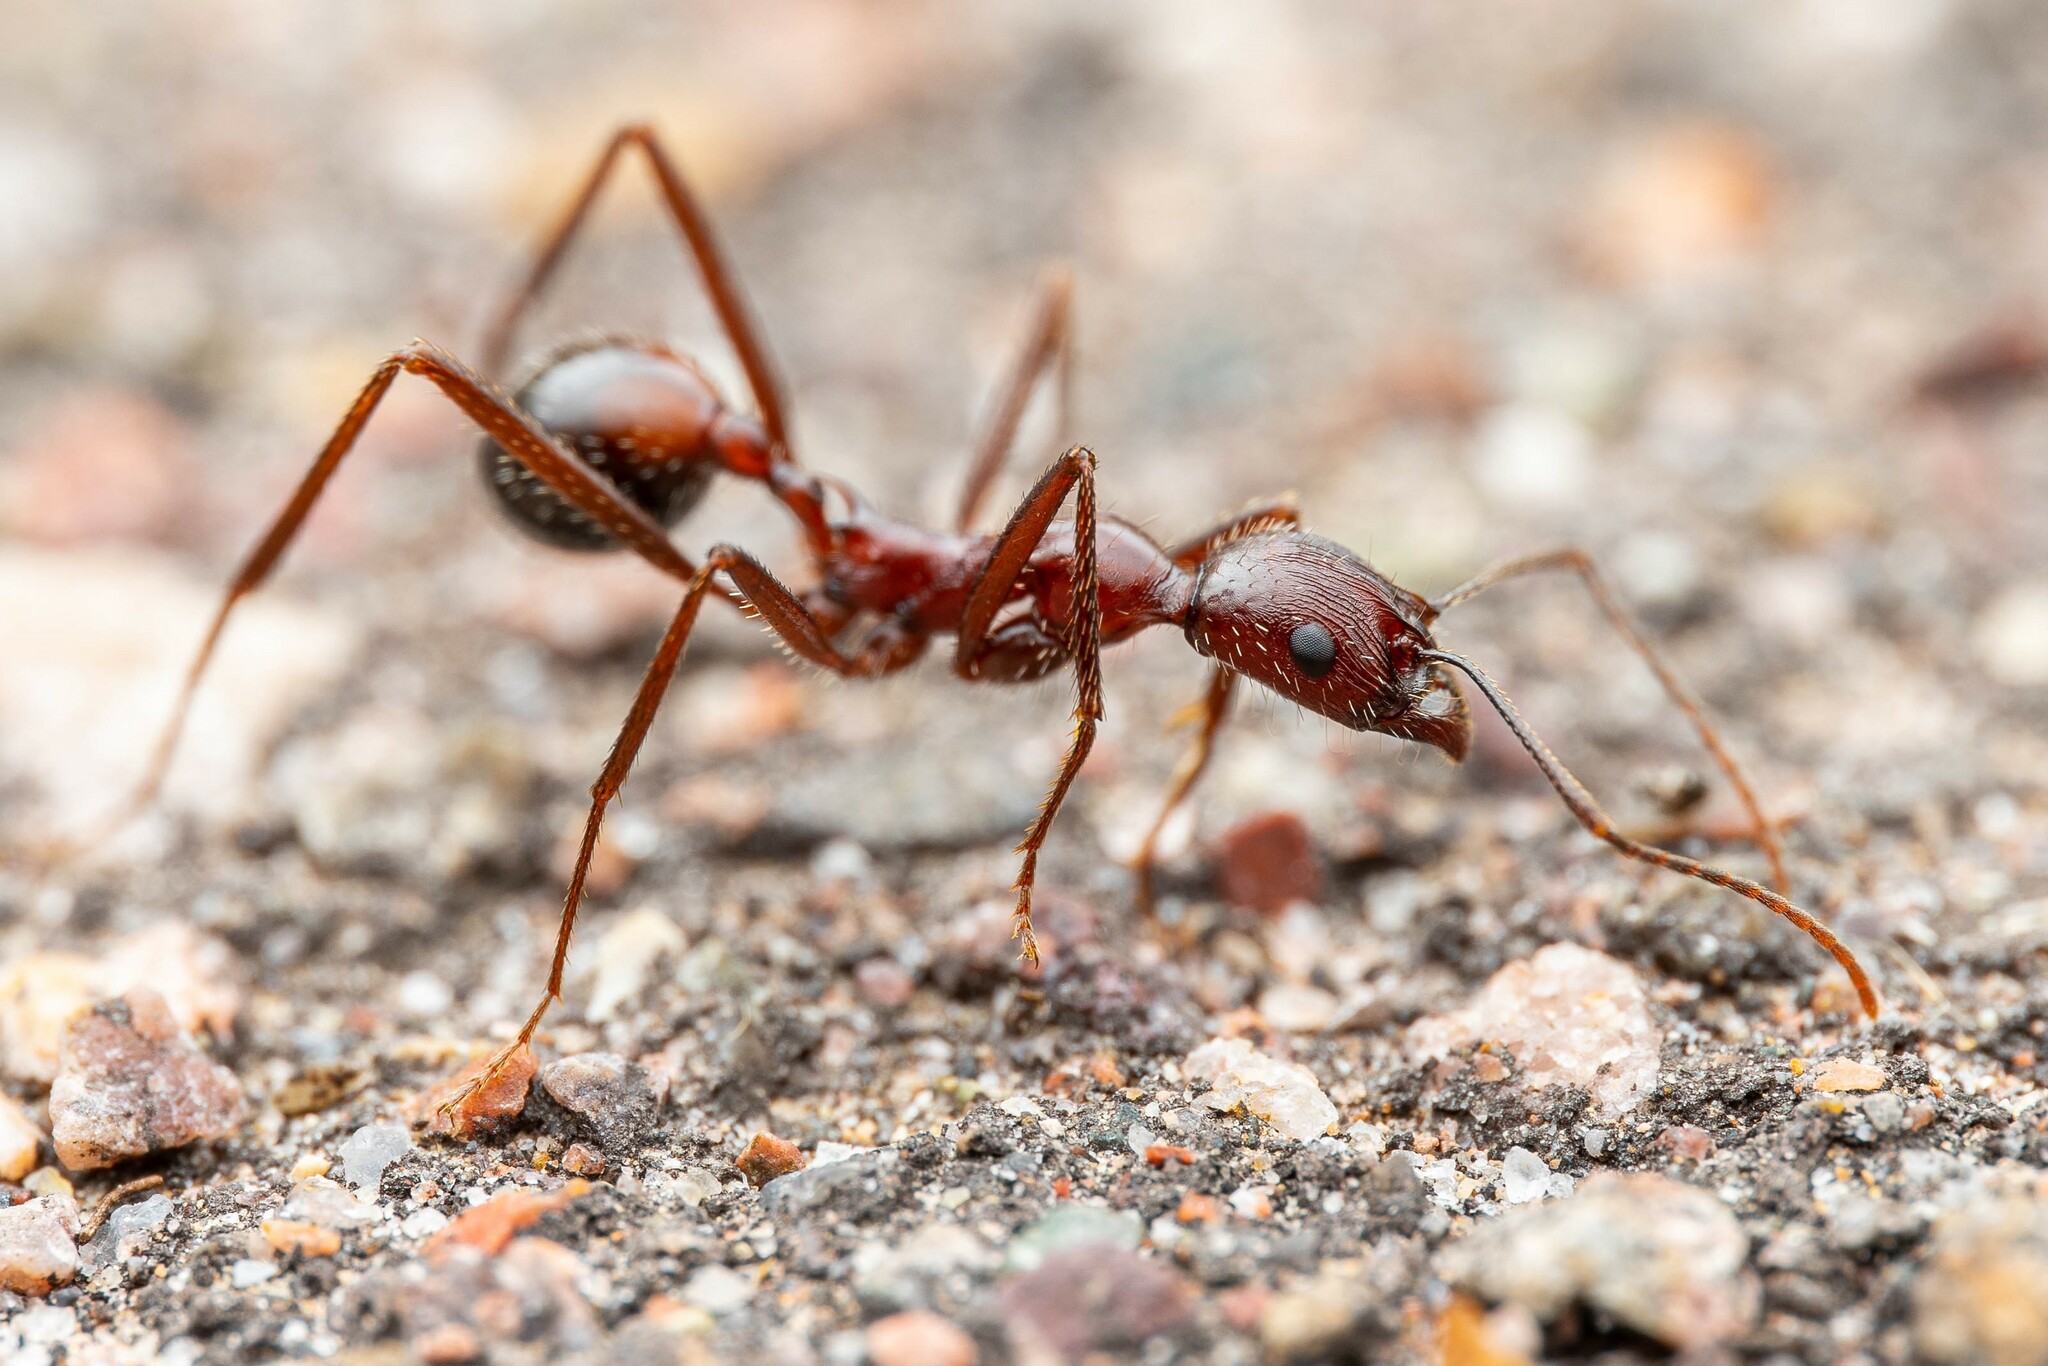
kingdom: Animalia
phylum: Arthropoda
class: Insecta
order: Hymenoptera
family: Formicidae
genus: Novomessor
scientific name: Novomessor cockerelli
